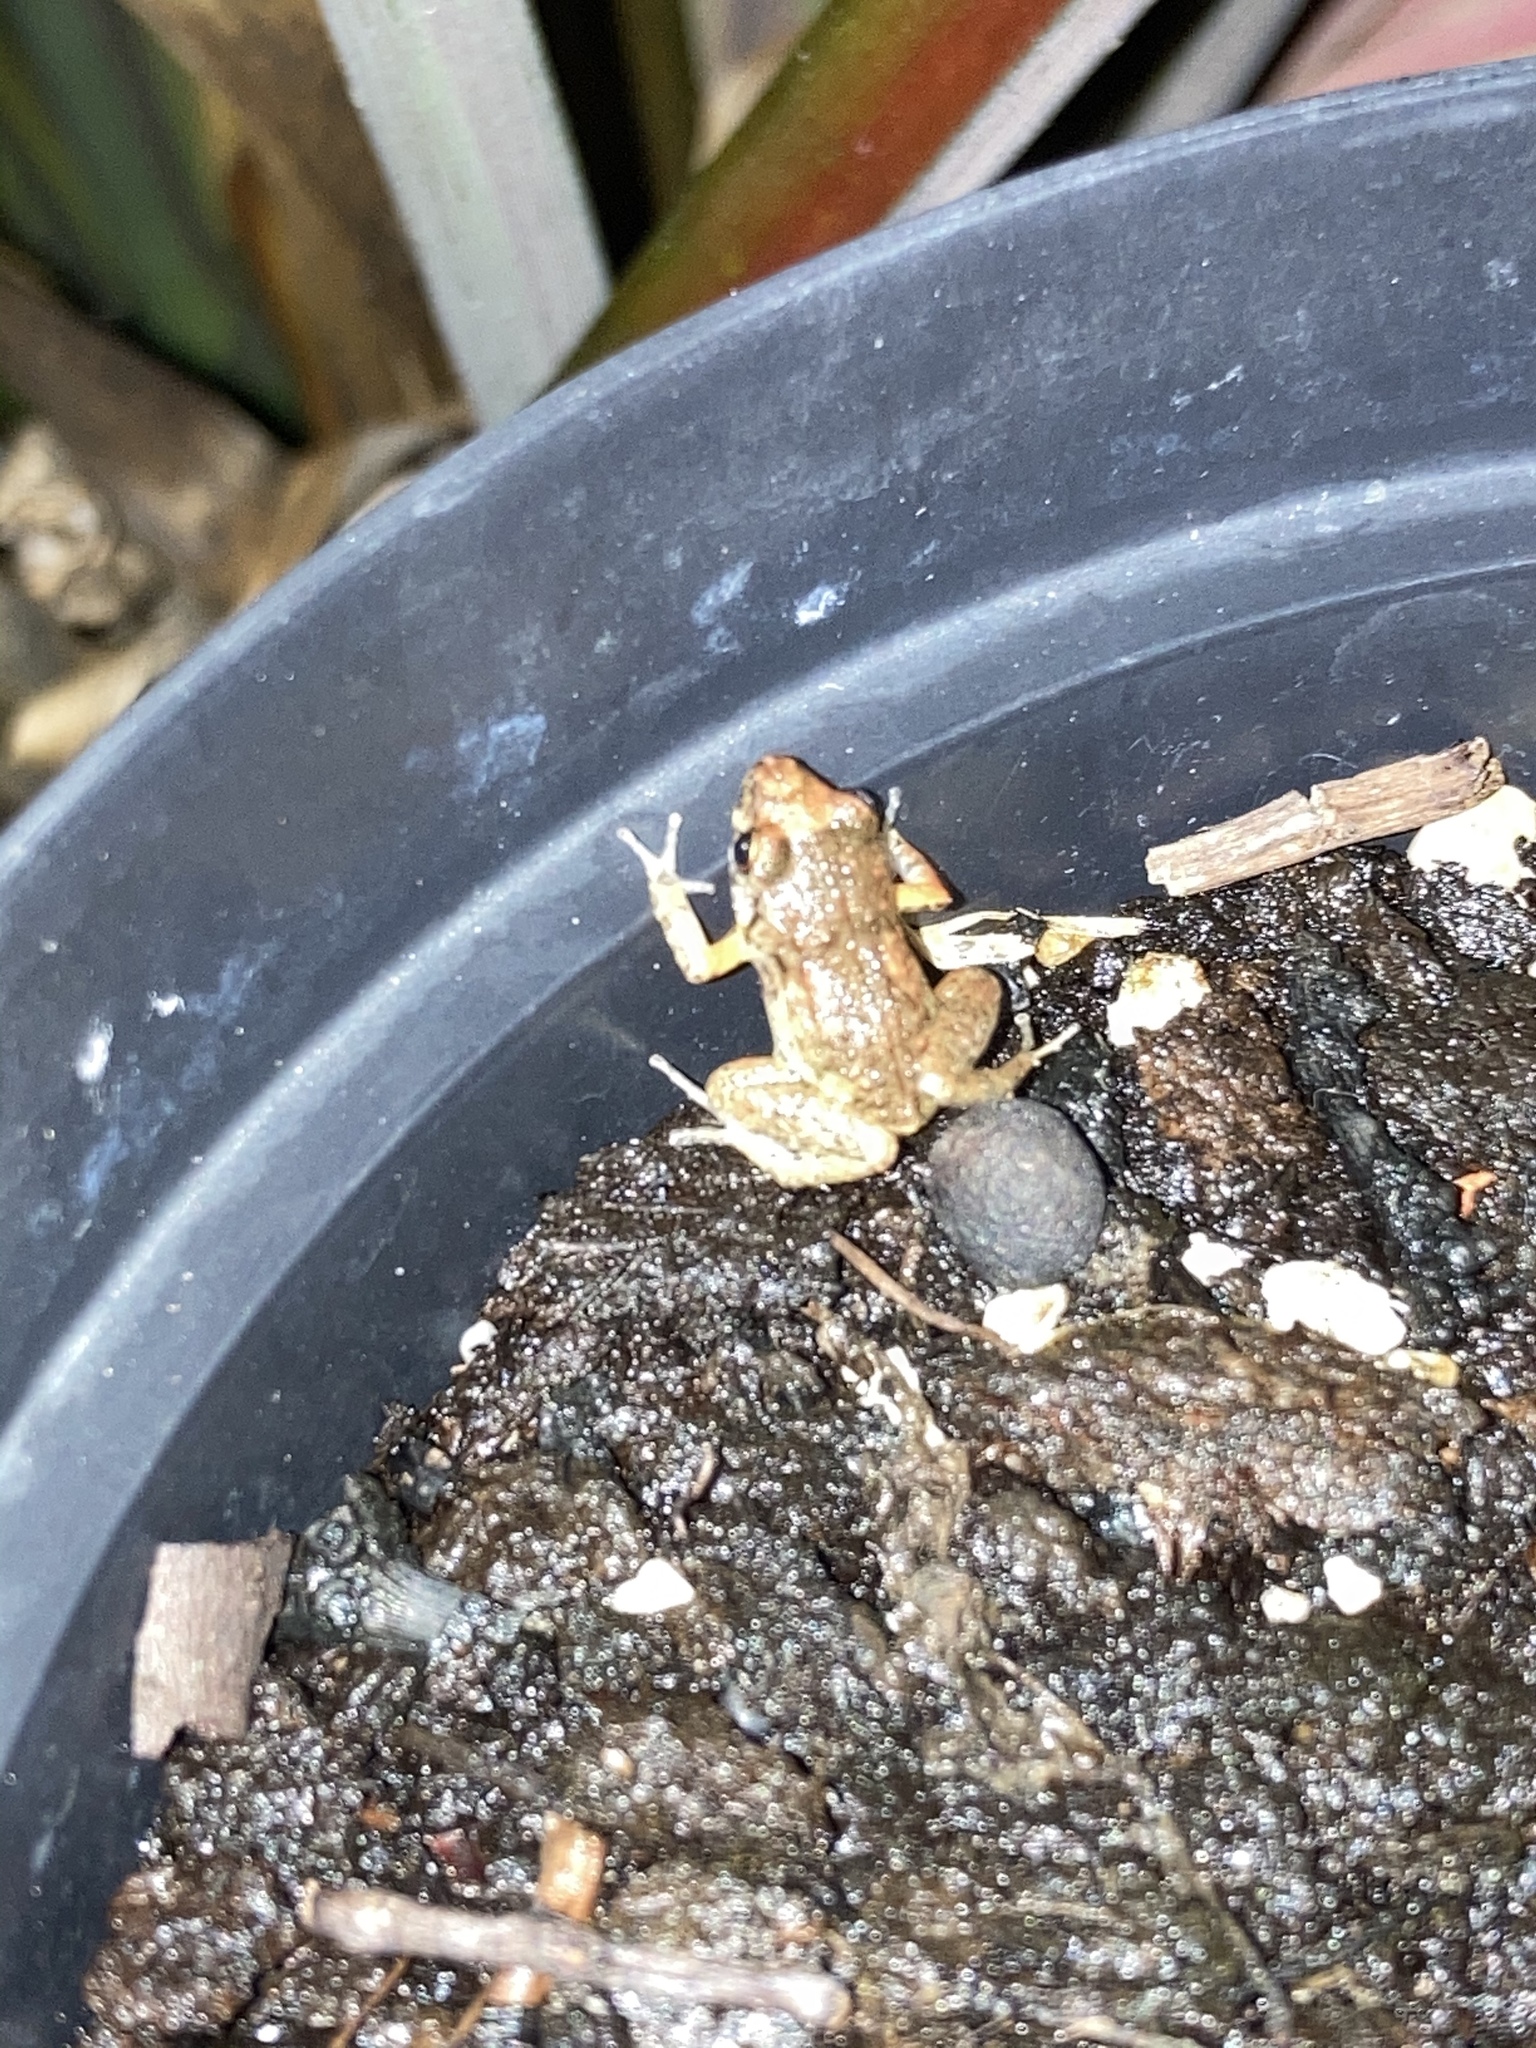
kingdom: Animalia
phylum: Chordata
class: Amphibia
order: Anura
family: Eleutherodactylidae
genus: Eleutherodactylus
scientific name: Eleutherodactylus planirostris
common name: Greenhouse frog
